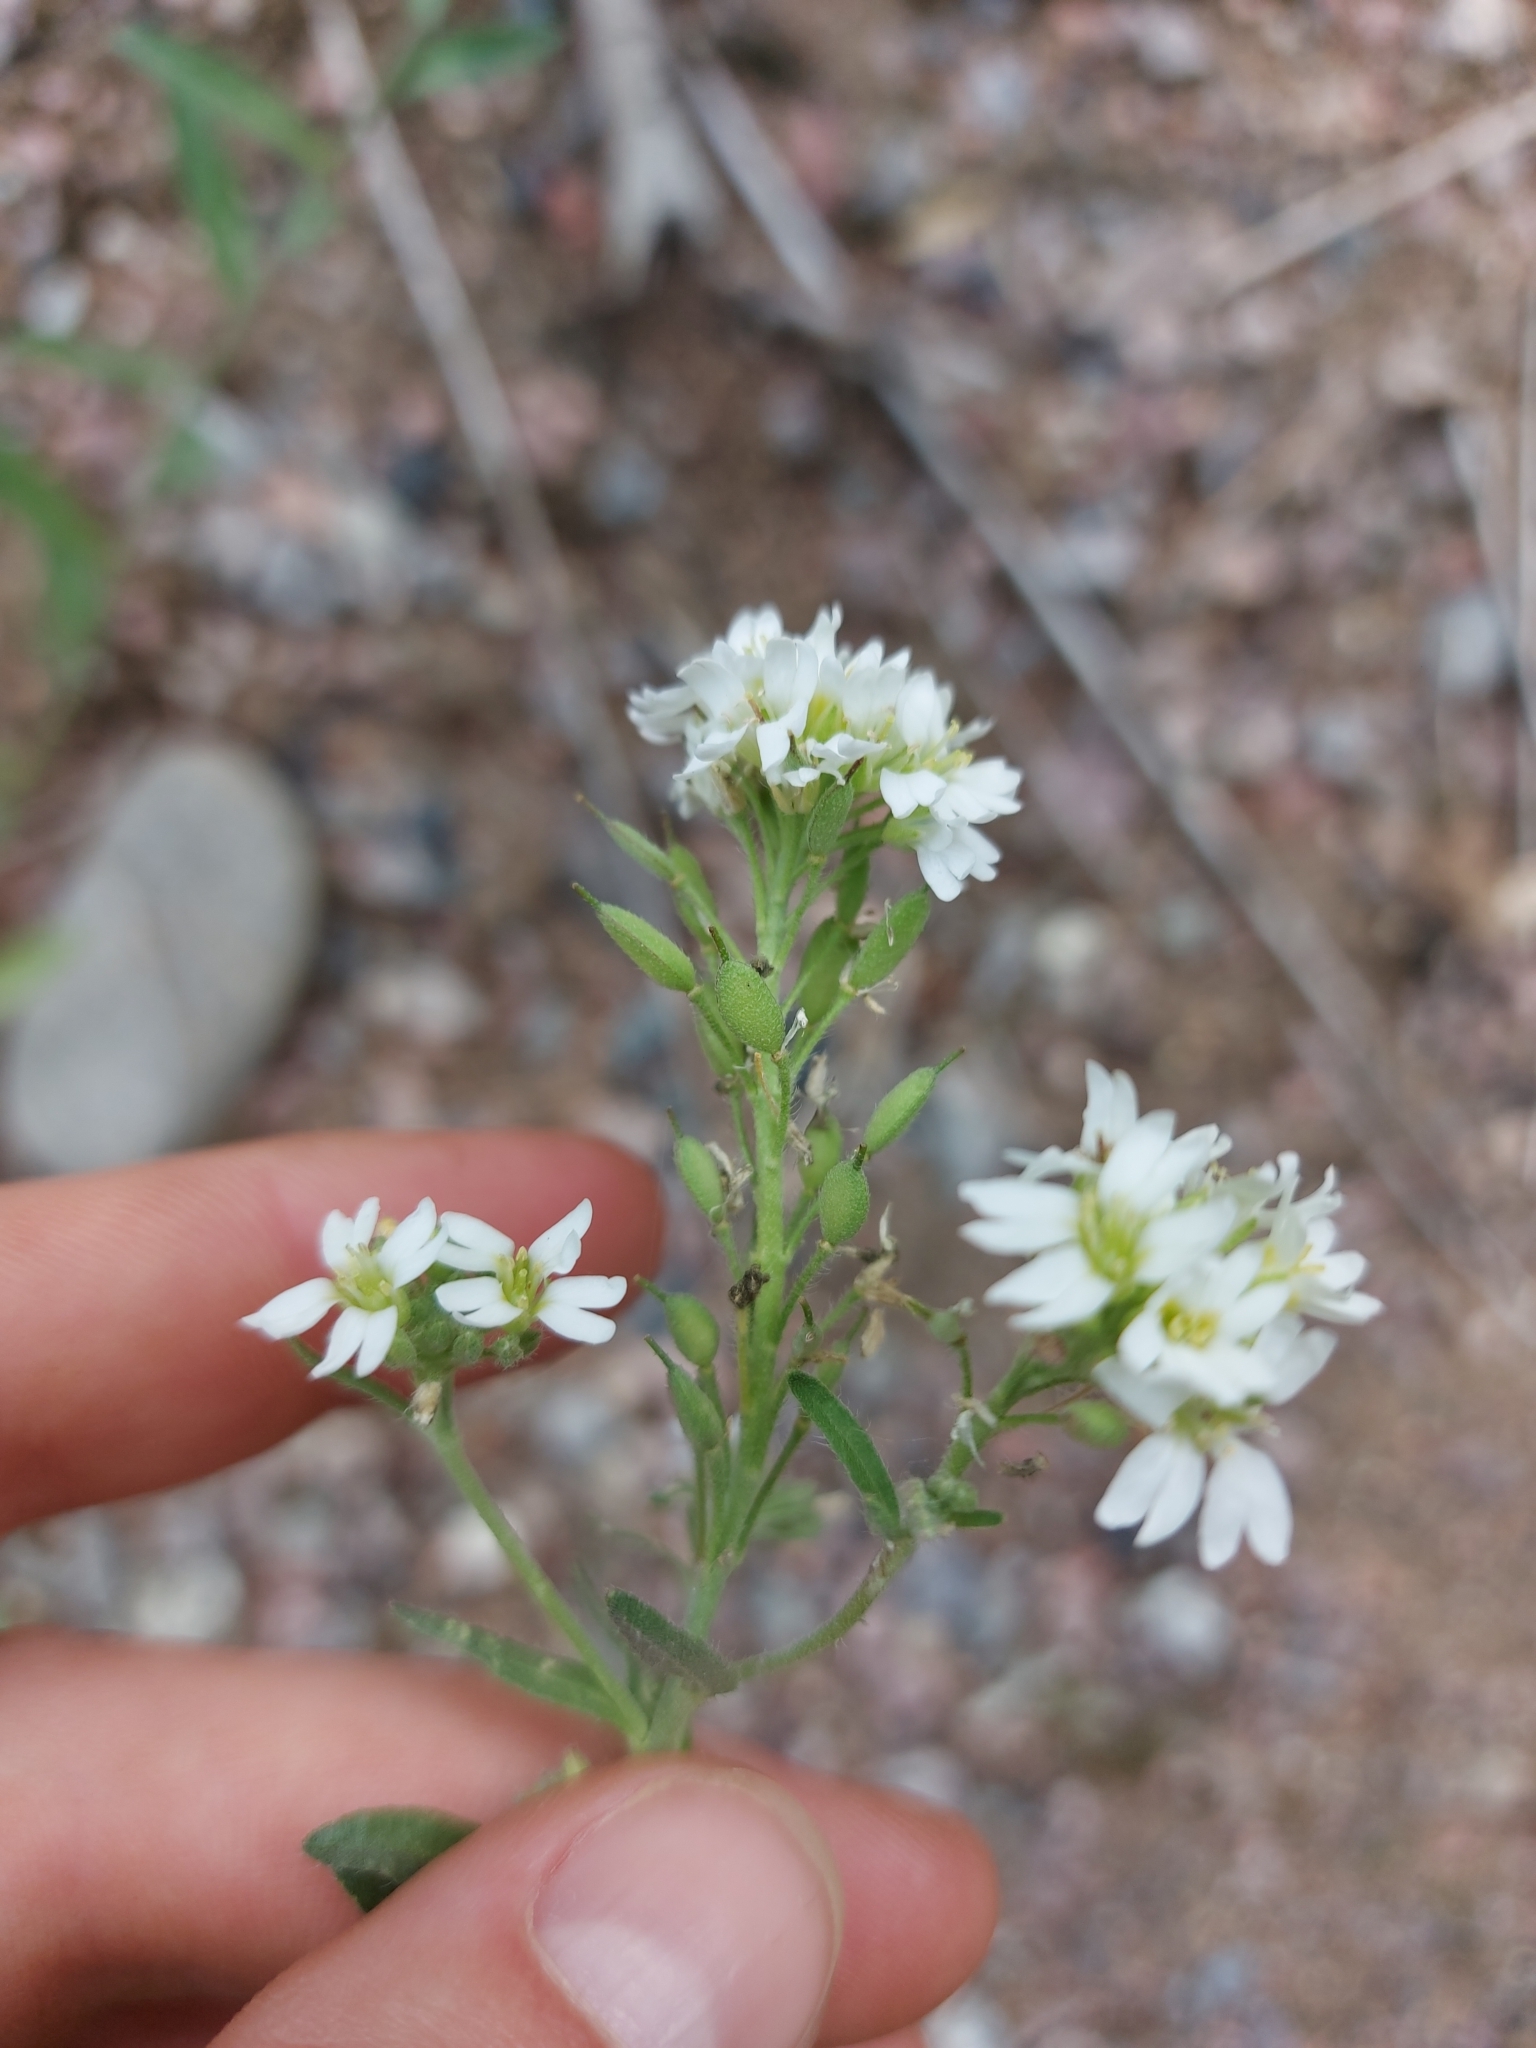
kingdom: Plantae
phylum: Tracheophyta
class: Magnoliopsida
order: Brassicales
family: Brassicaceae
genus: Berteroa
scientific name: Berteroa incana
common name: Hoary alison
